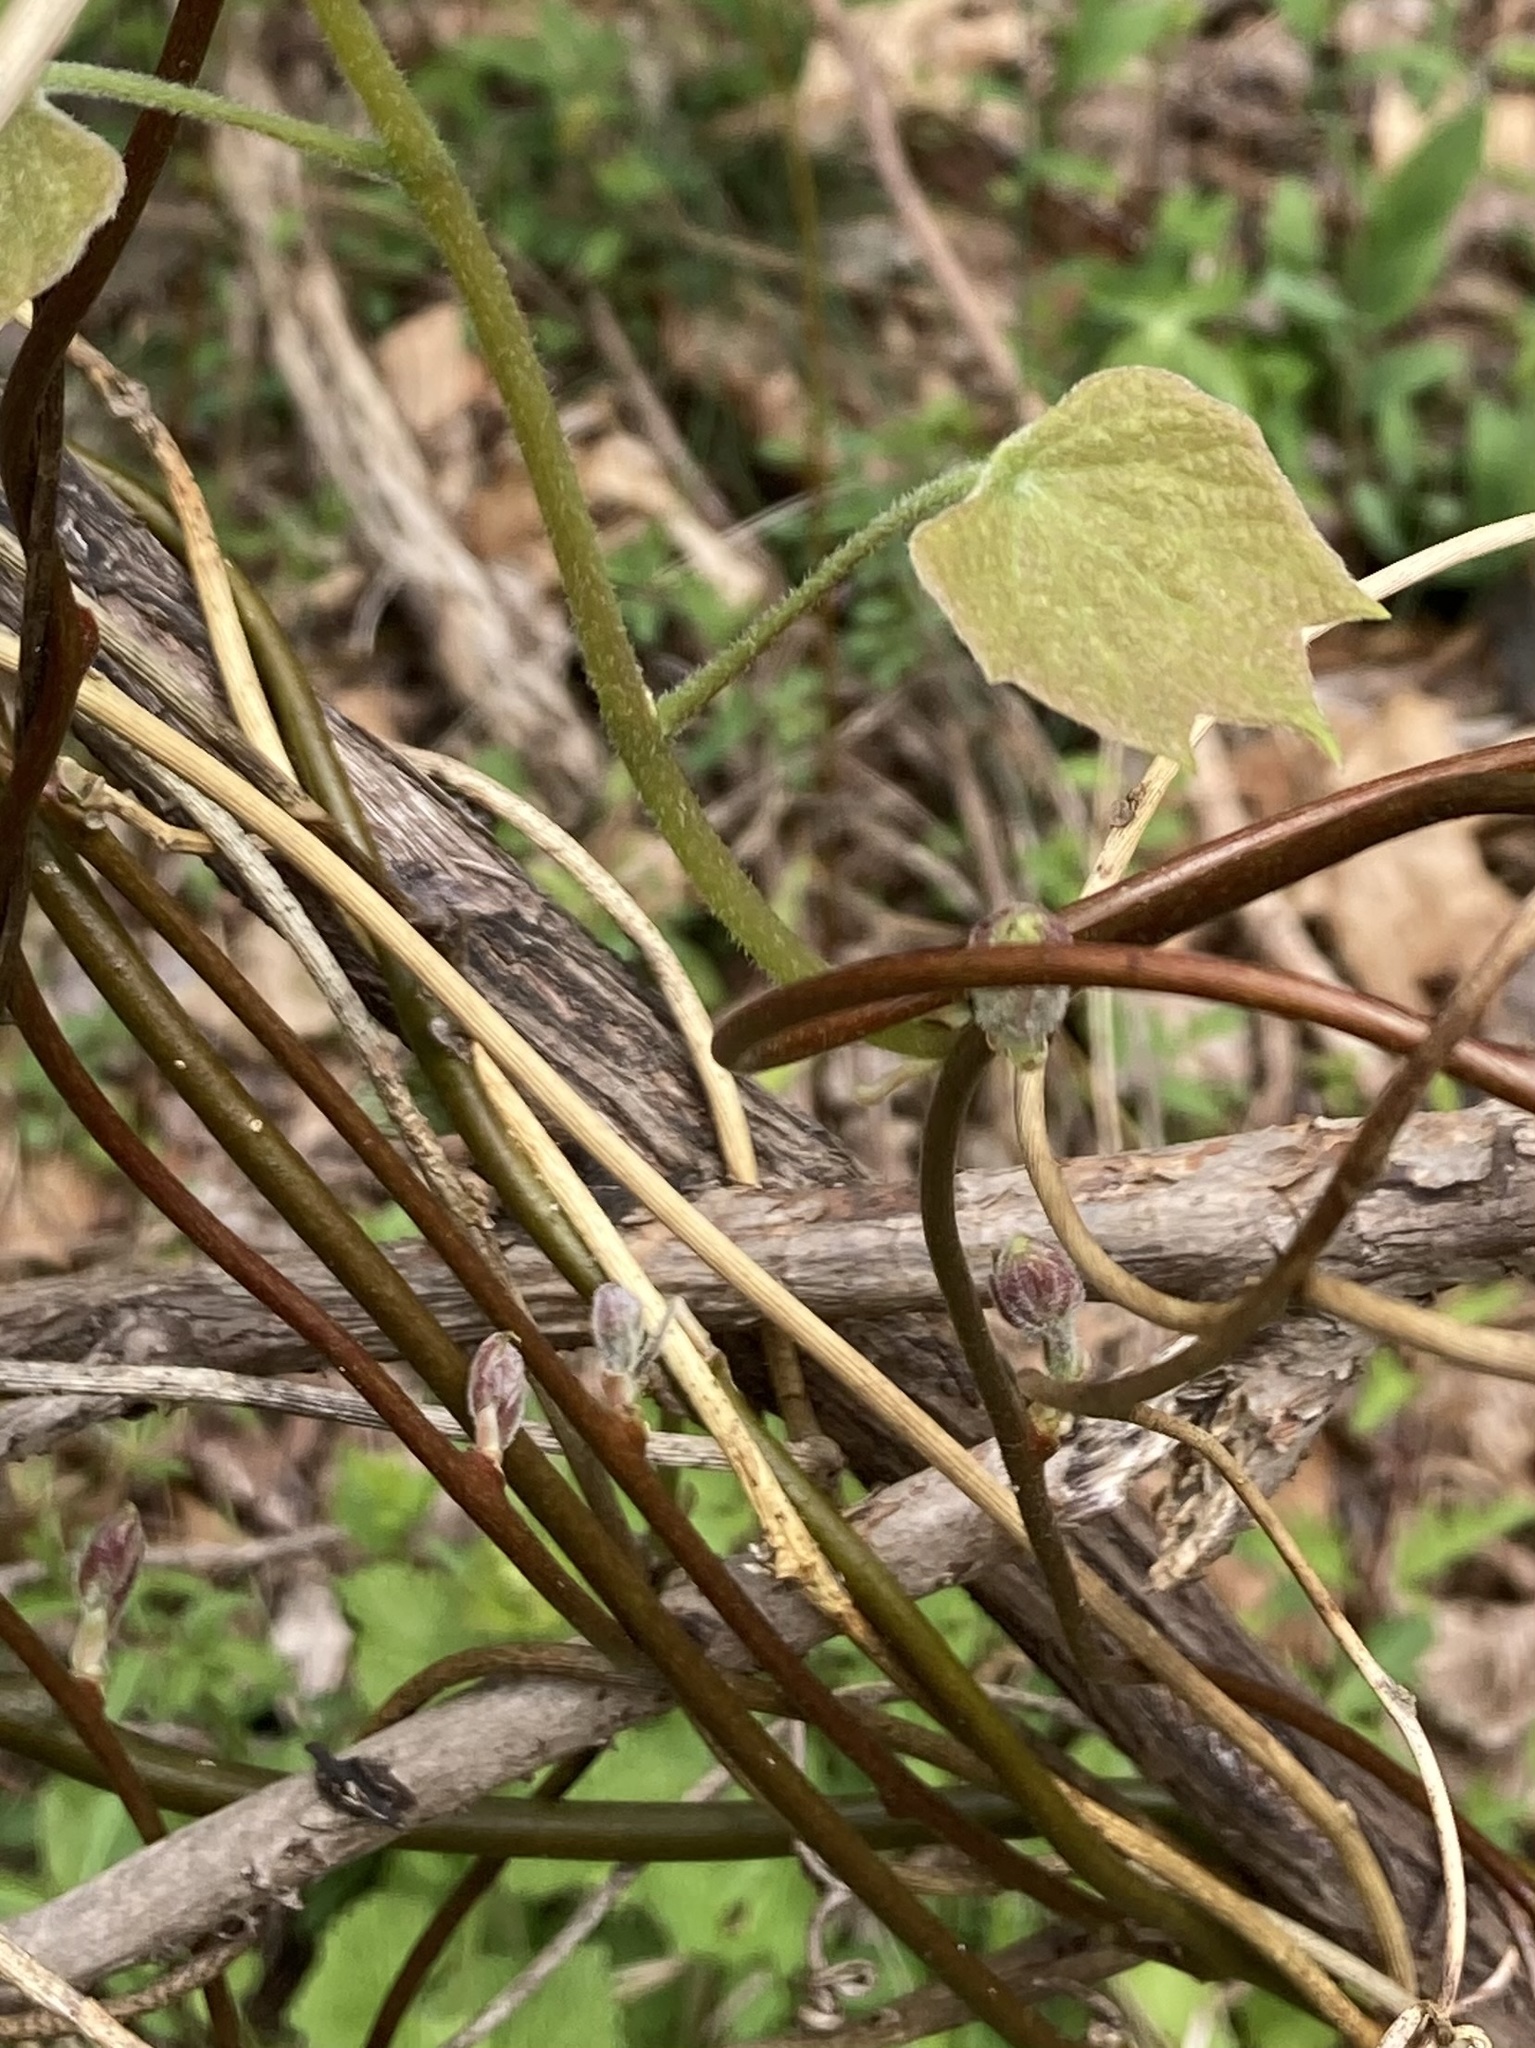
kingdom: Plantae
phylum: Tracheophyta
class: Magnoliopsida
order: Ranunculales
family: Menispermaceae
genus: Menispermum
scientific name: Menispermum canadense
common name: Moonseed
